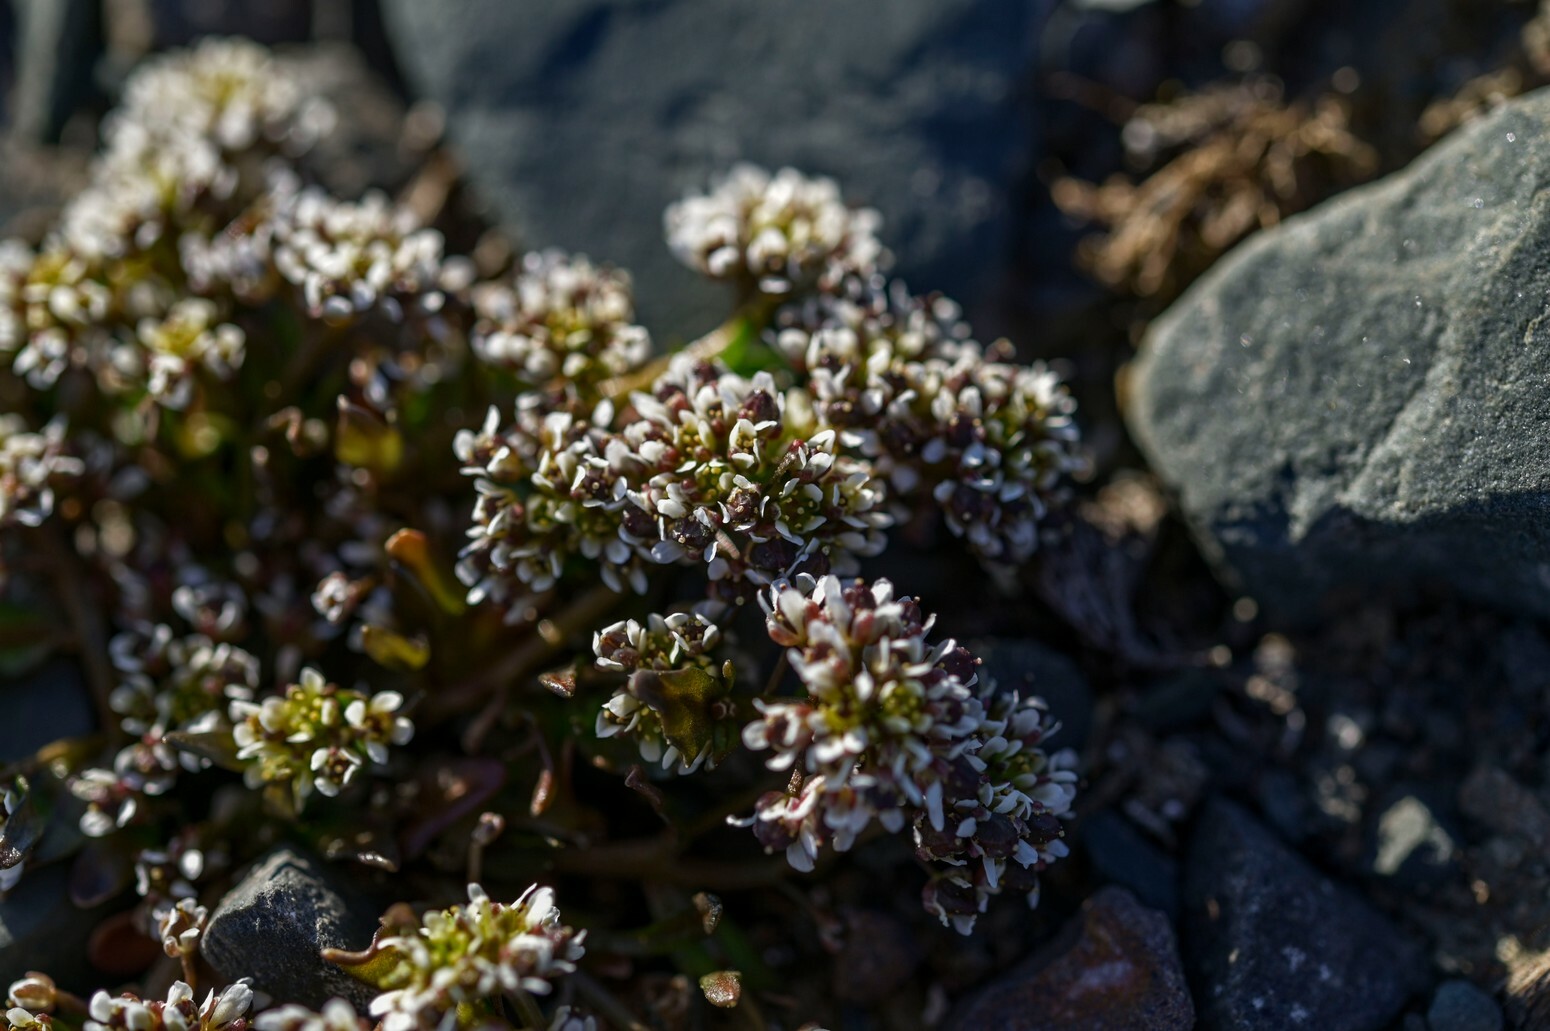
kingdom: Plantae
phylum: Tracheophyta
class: Magnoliopsida
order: Brassicales
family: Brassicaceae
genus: Cochlearia
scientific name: Cochlearia groenlandica
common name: Danish scurvygrass
